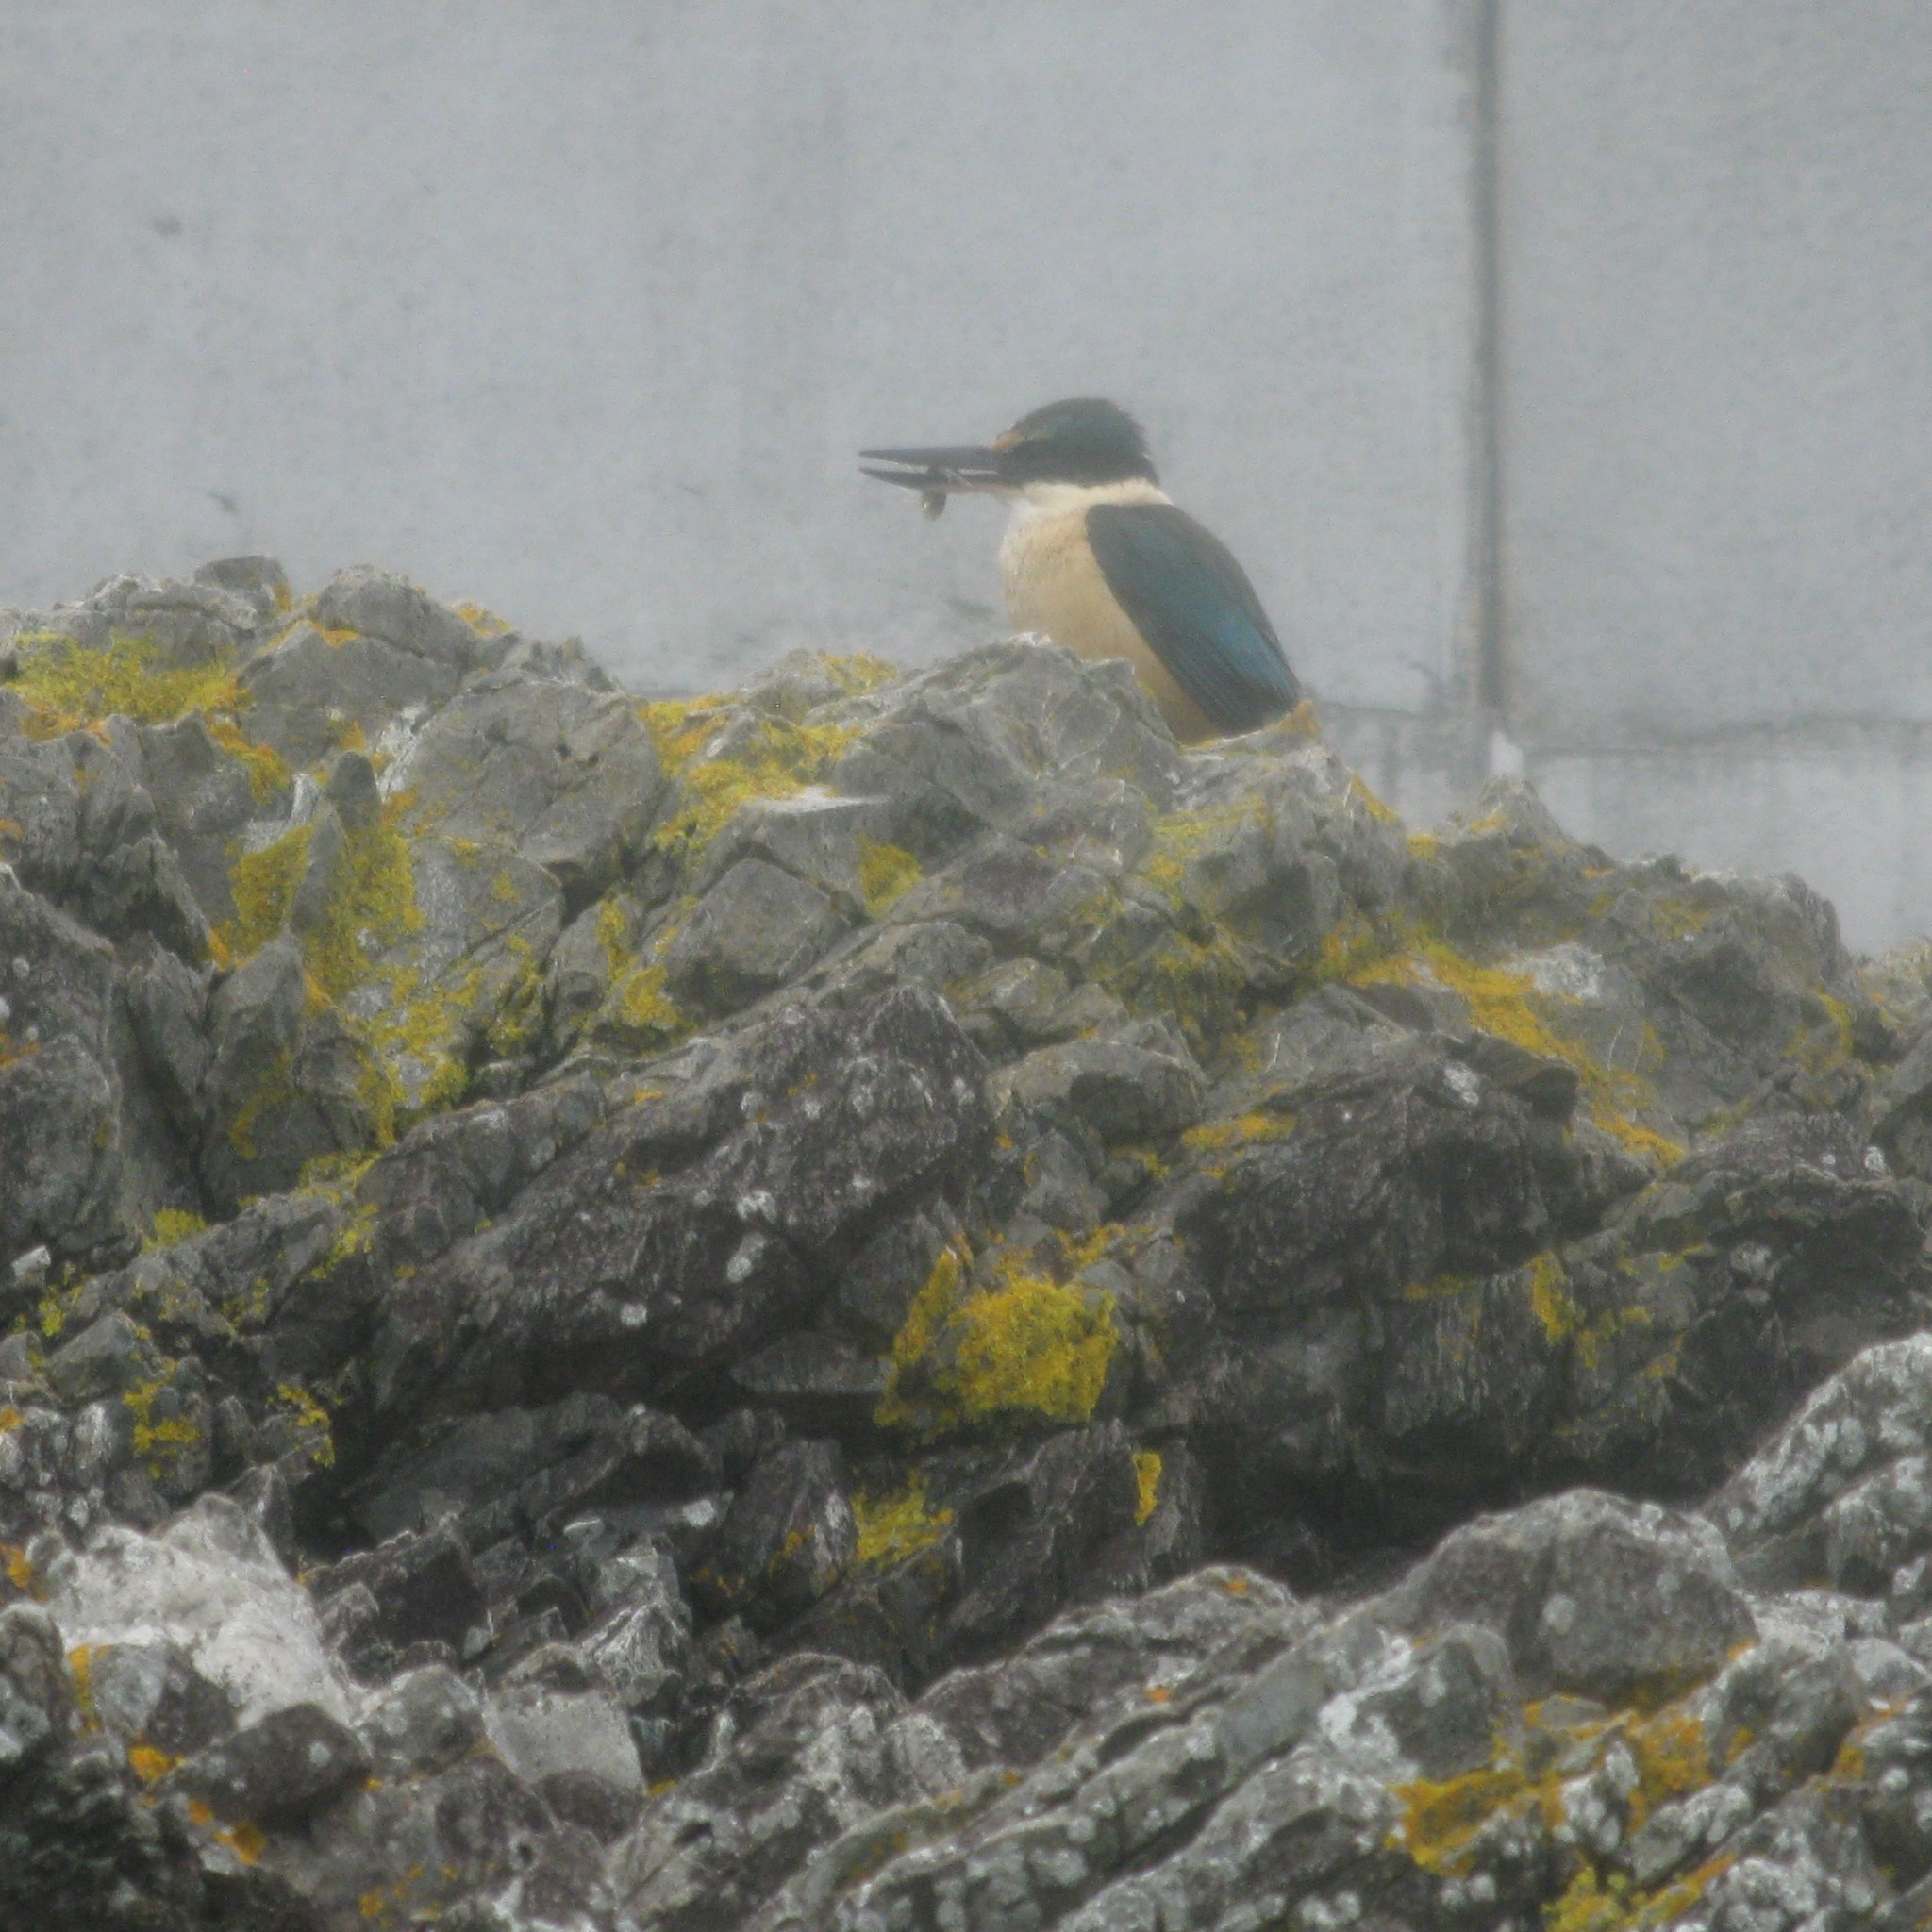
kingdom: Animalia
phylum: Chordata
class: Aves
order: Coraciiformes
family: Alcedinidae
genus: Todiramphus
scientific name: Todiramphus sanctus
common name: Sacred kingfisher
